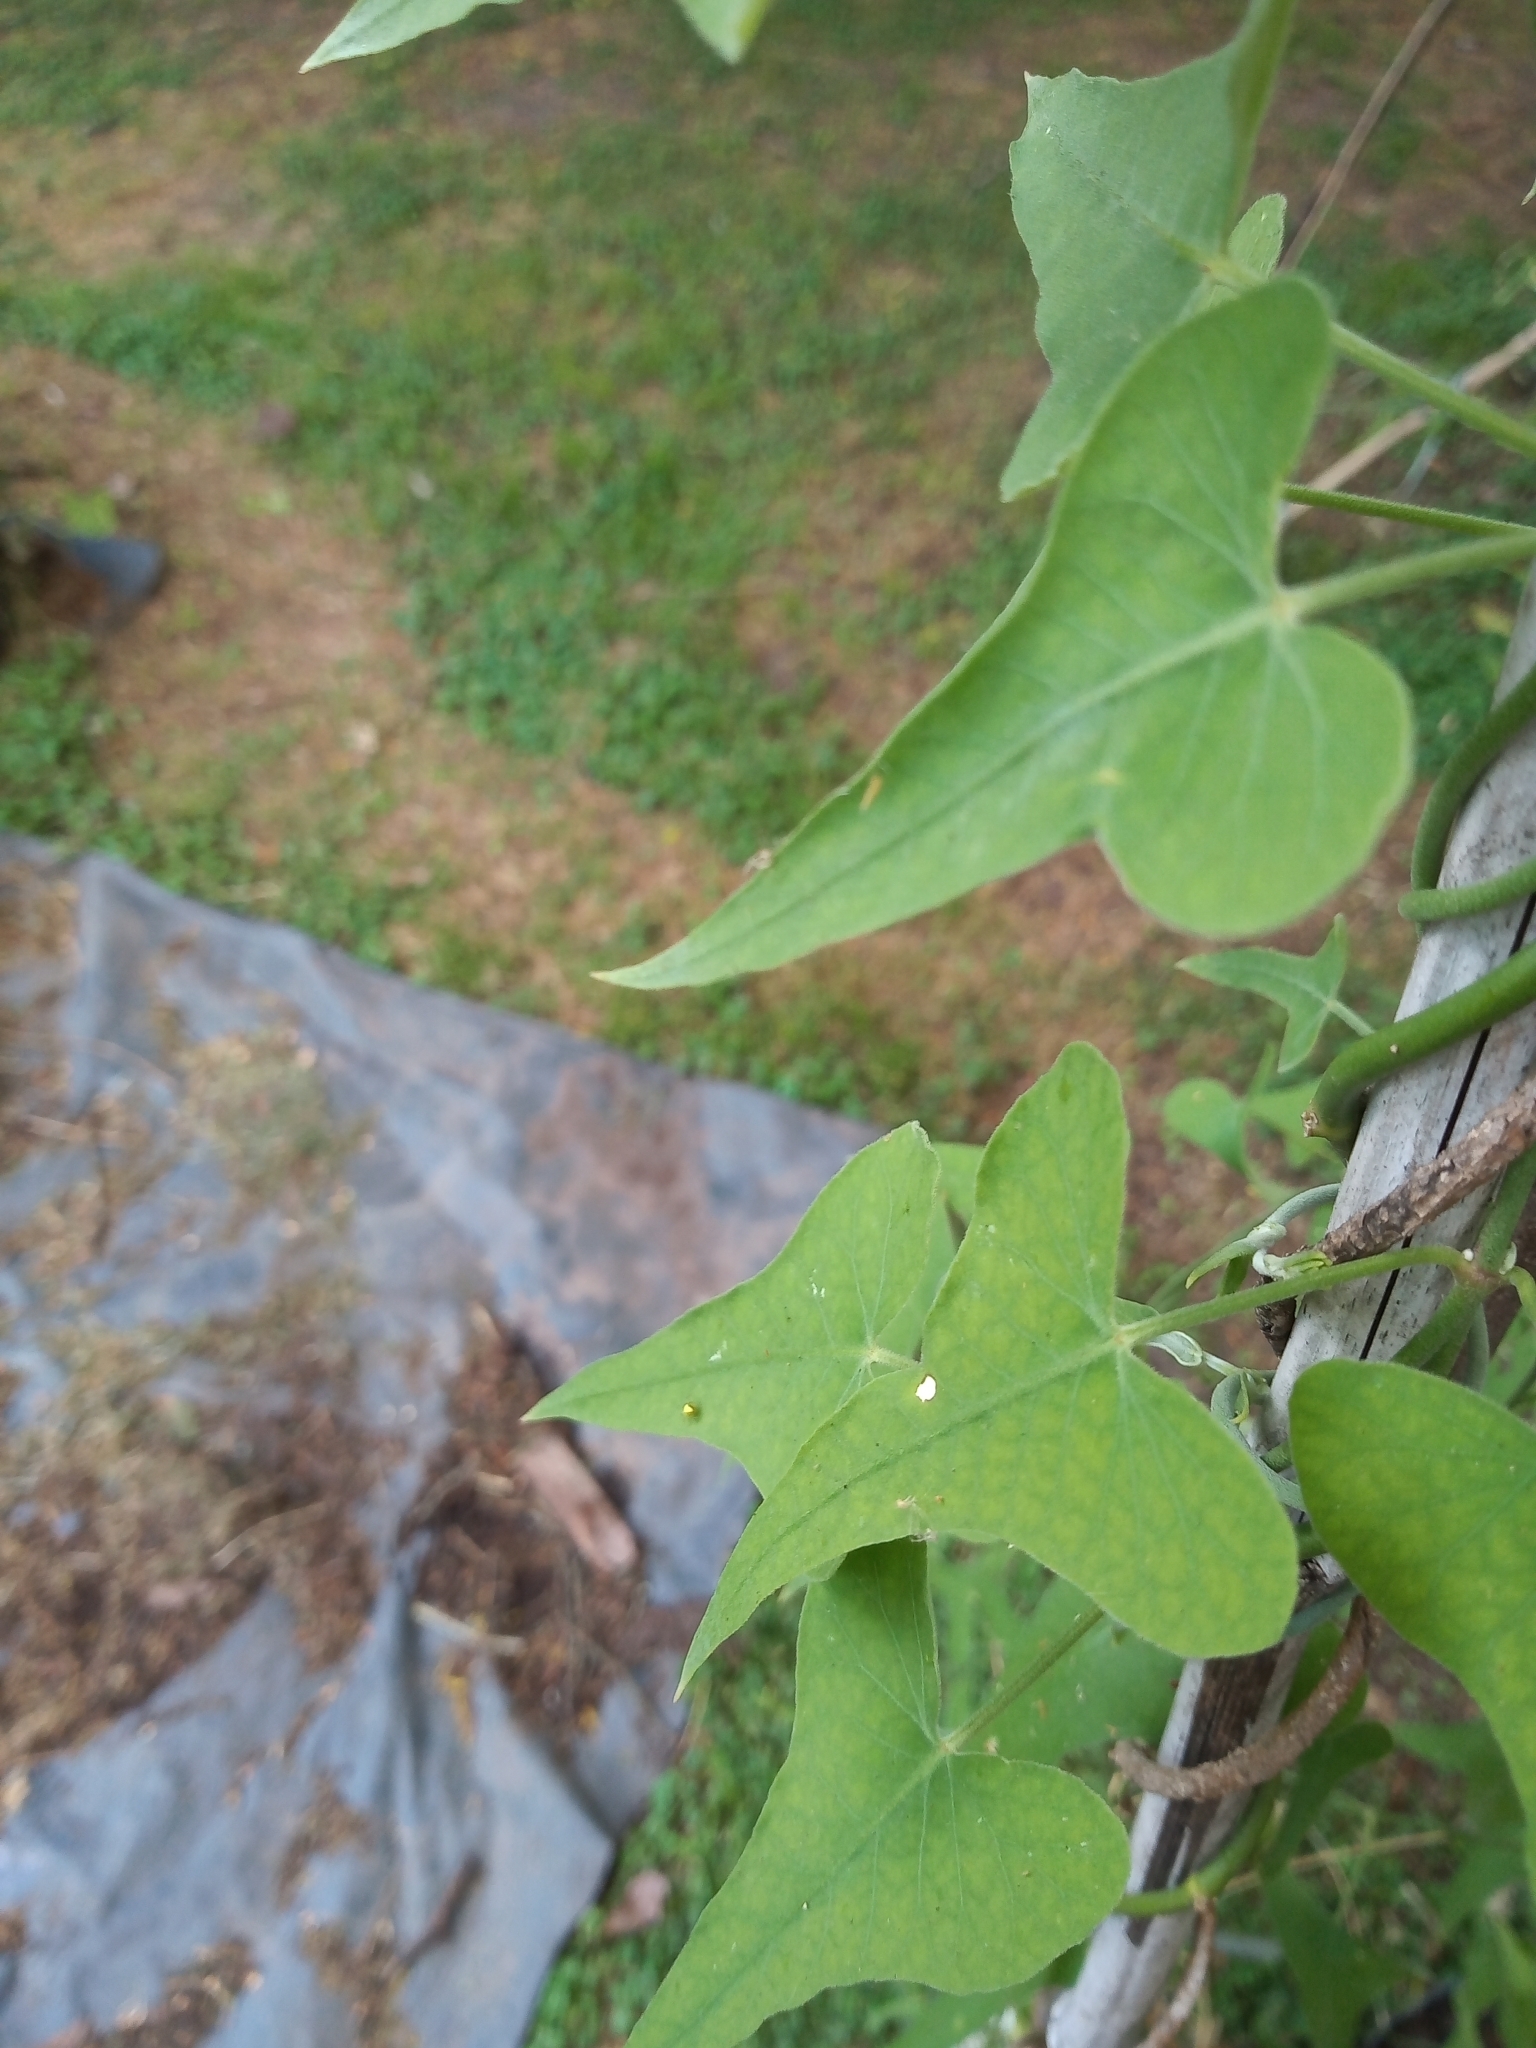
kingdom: Plantae
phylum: Tracheophyta
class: Magnoliopsida
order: Gentianales
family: Apocynaceae
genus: Araujia
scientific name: Araujia odorata
